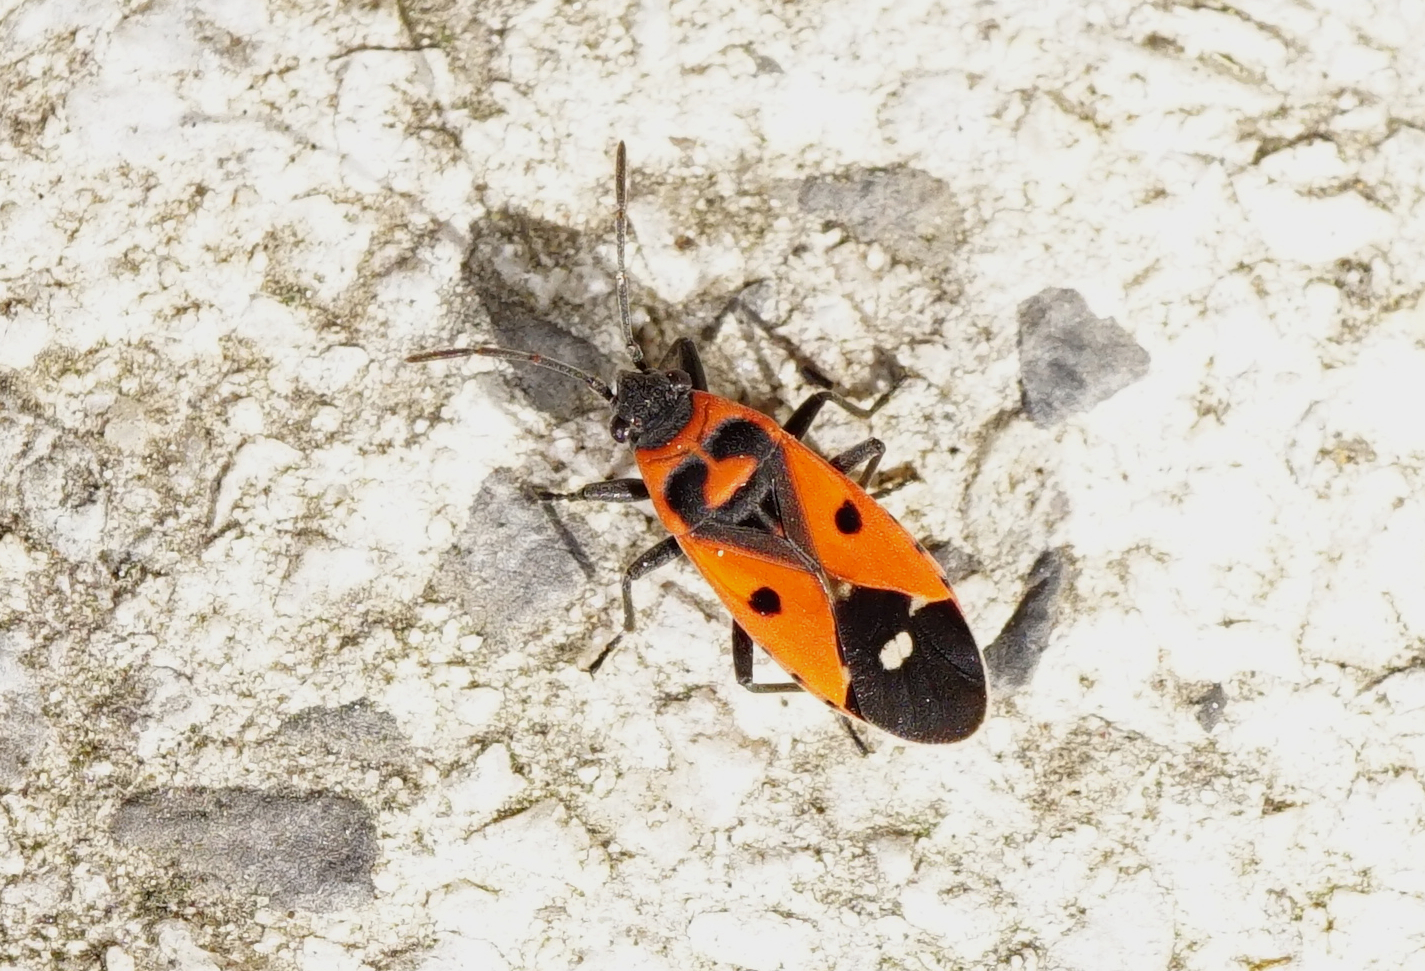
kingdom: Animalia
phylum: Arthropoda
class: Insecta
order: Hemiptera
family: Lygaeidae
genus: Melanocoryphus
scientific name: Melanocoryphus albomaculatus
